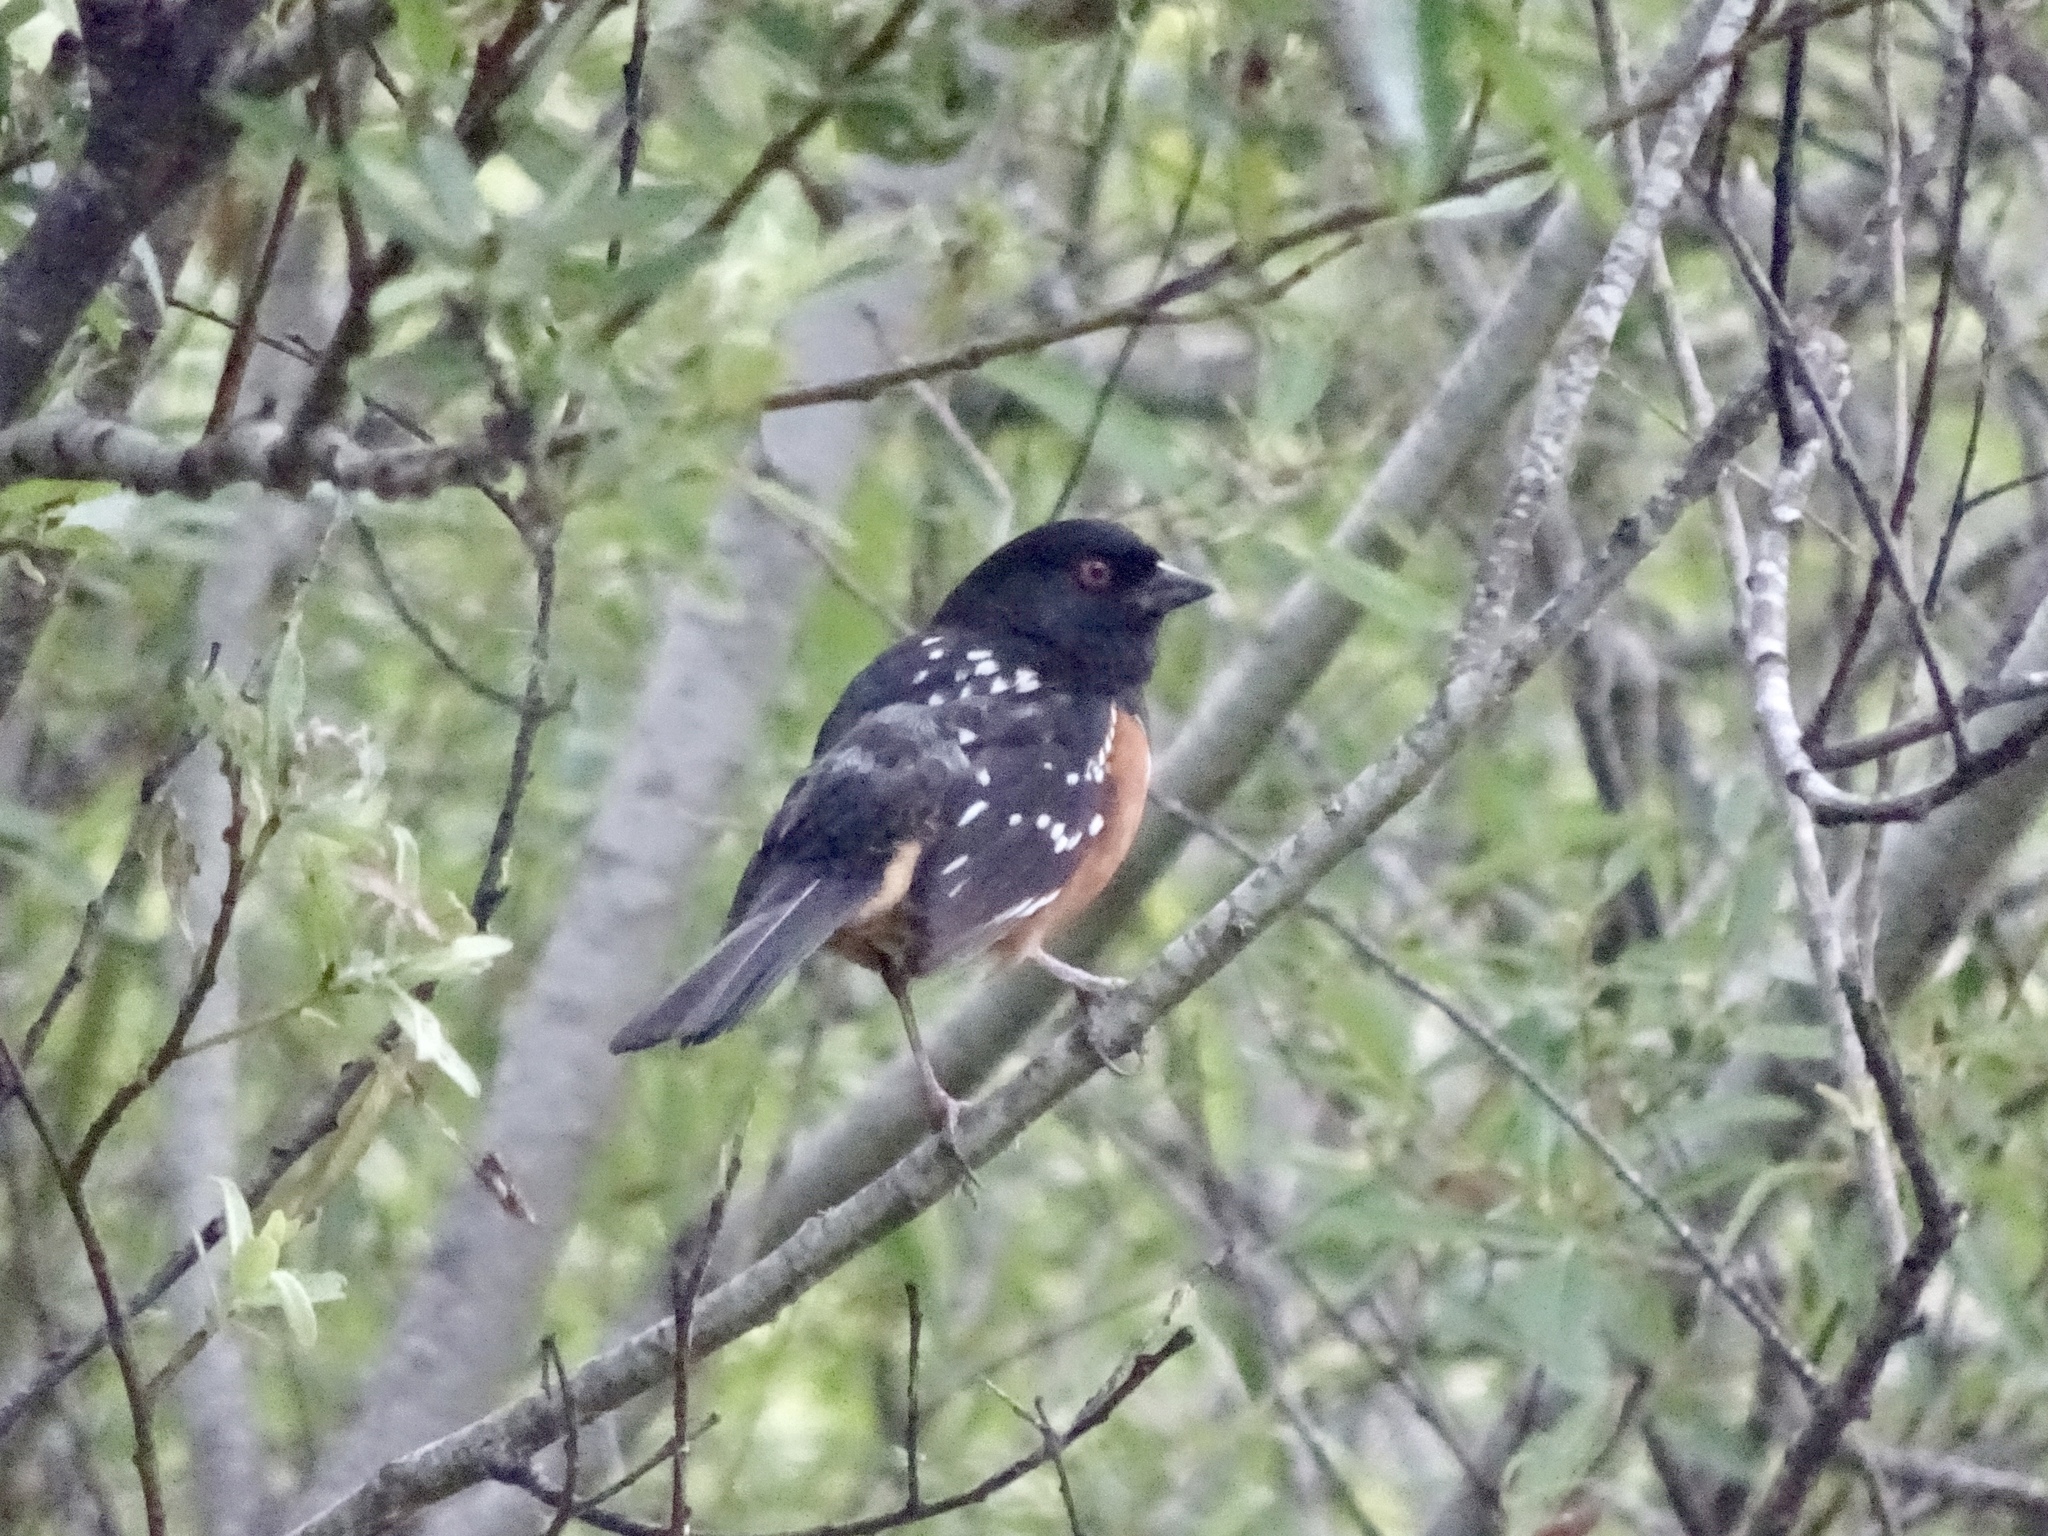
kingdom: Animalia
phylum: Chordata
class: Aves
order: Passeriformes
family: Passerellidae
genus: Pipilo
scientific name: Pipilo maculatus
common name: Spotted towhee
